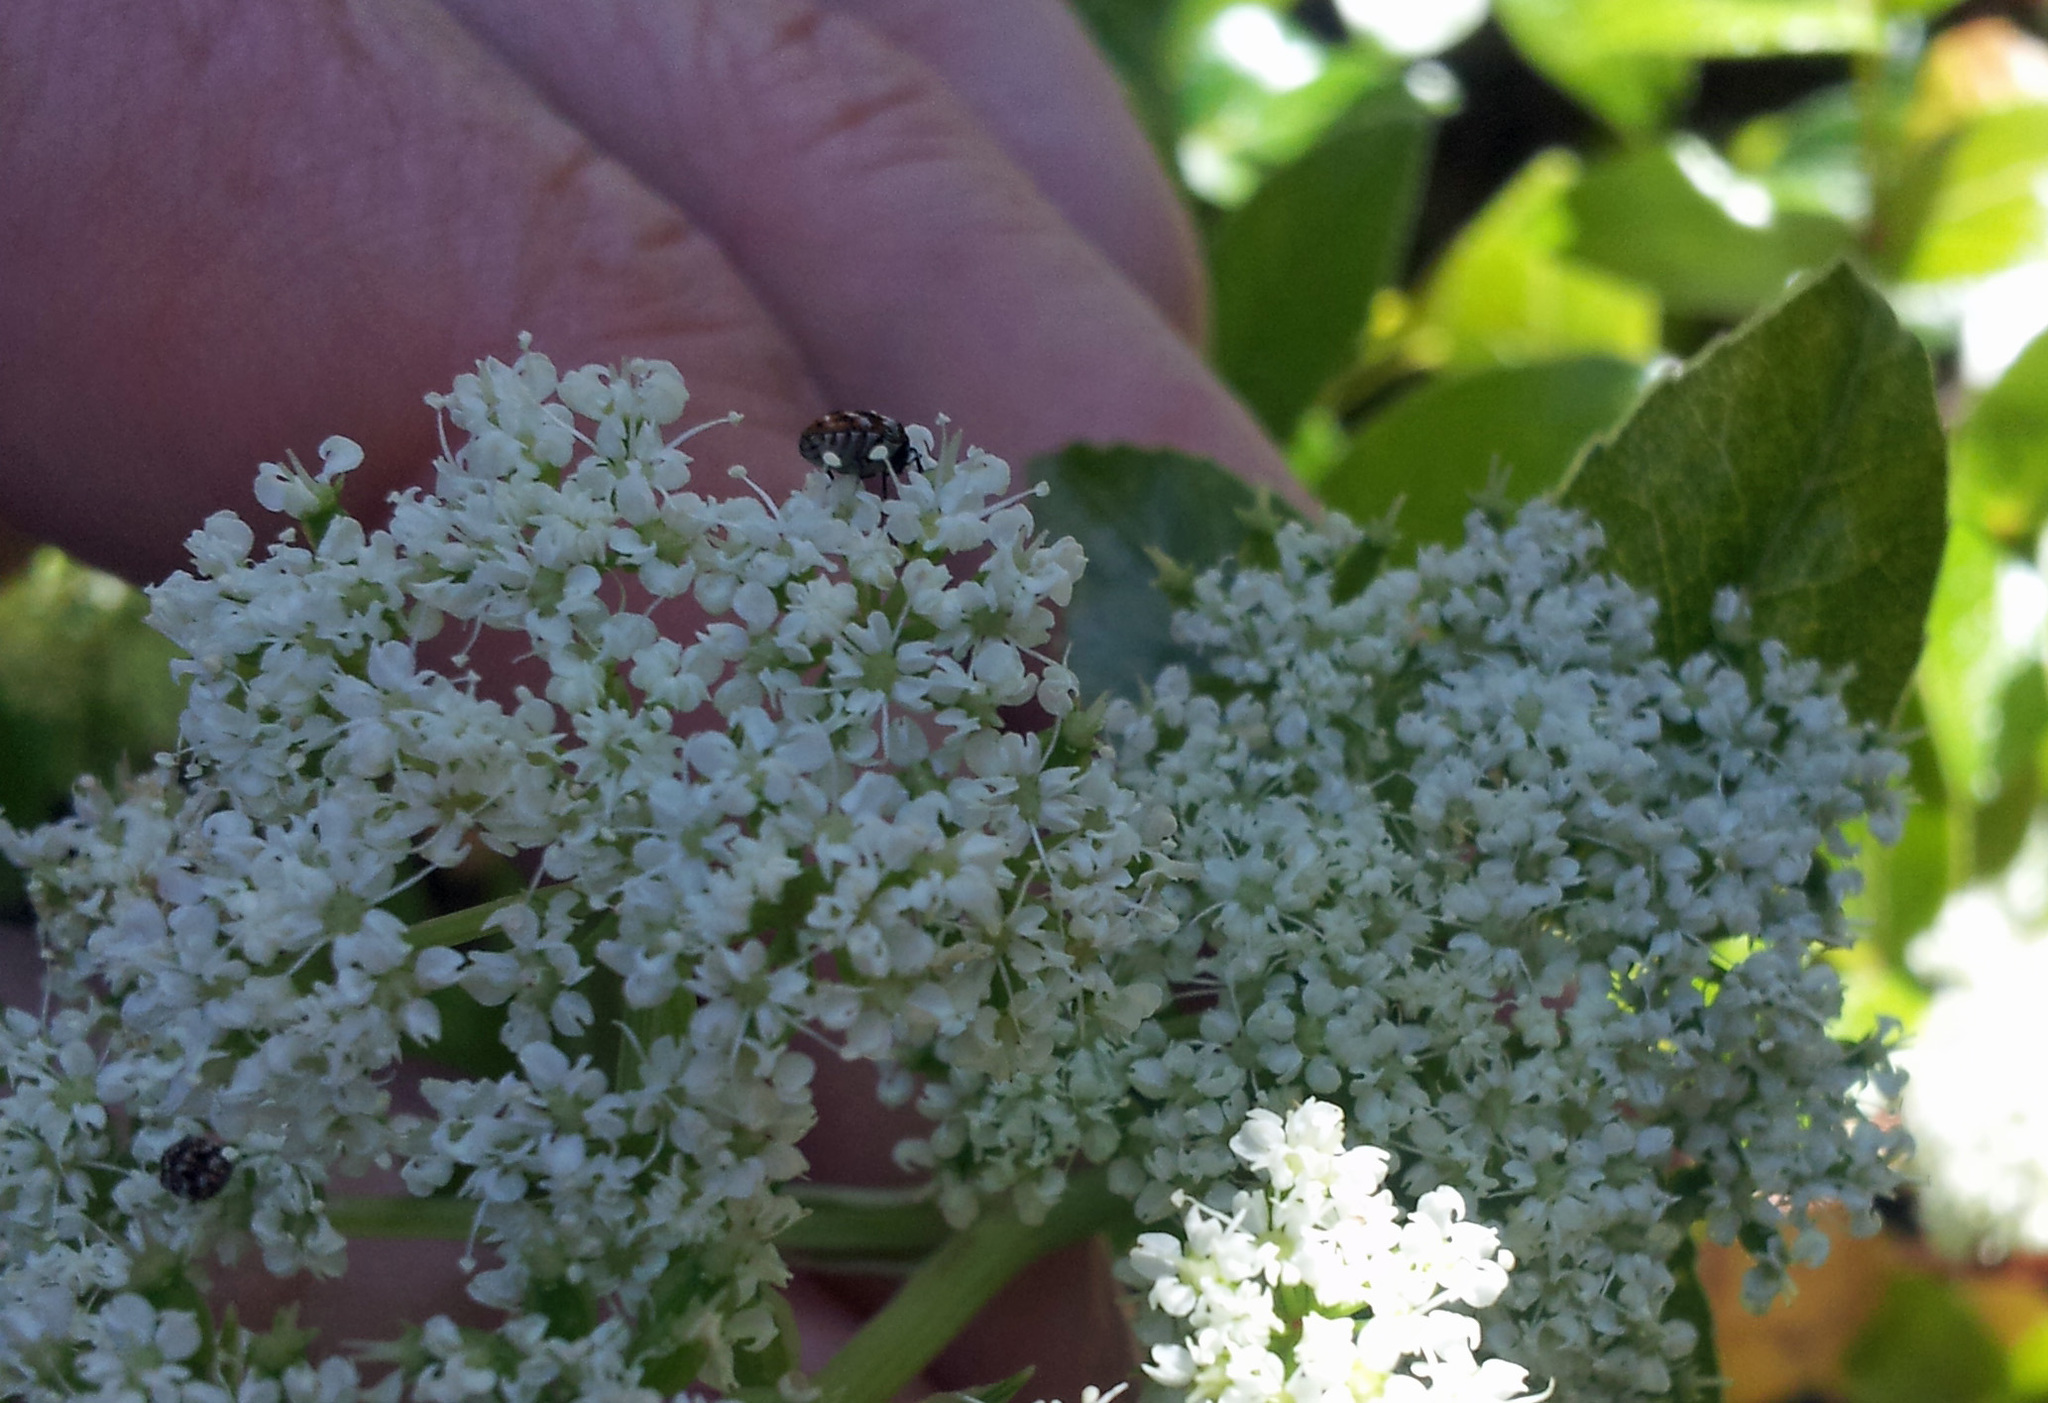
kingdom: Animalia
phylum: Arthropoda
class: Insecta
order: Coleoptera
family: Dermestidae
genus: Anthrenus
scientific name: Anthrenus verbasci
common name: Varied carpet beetle
